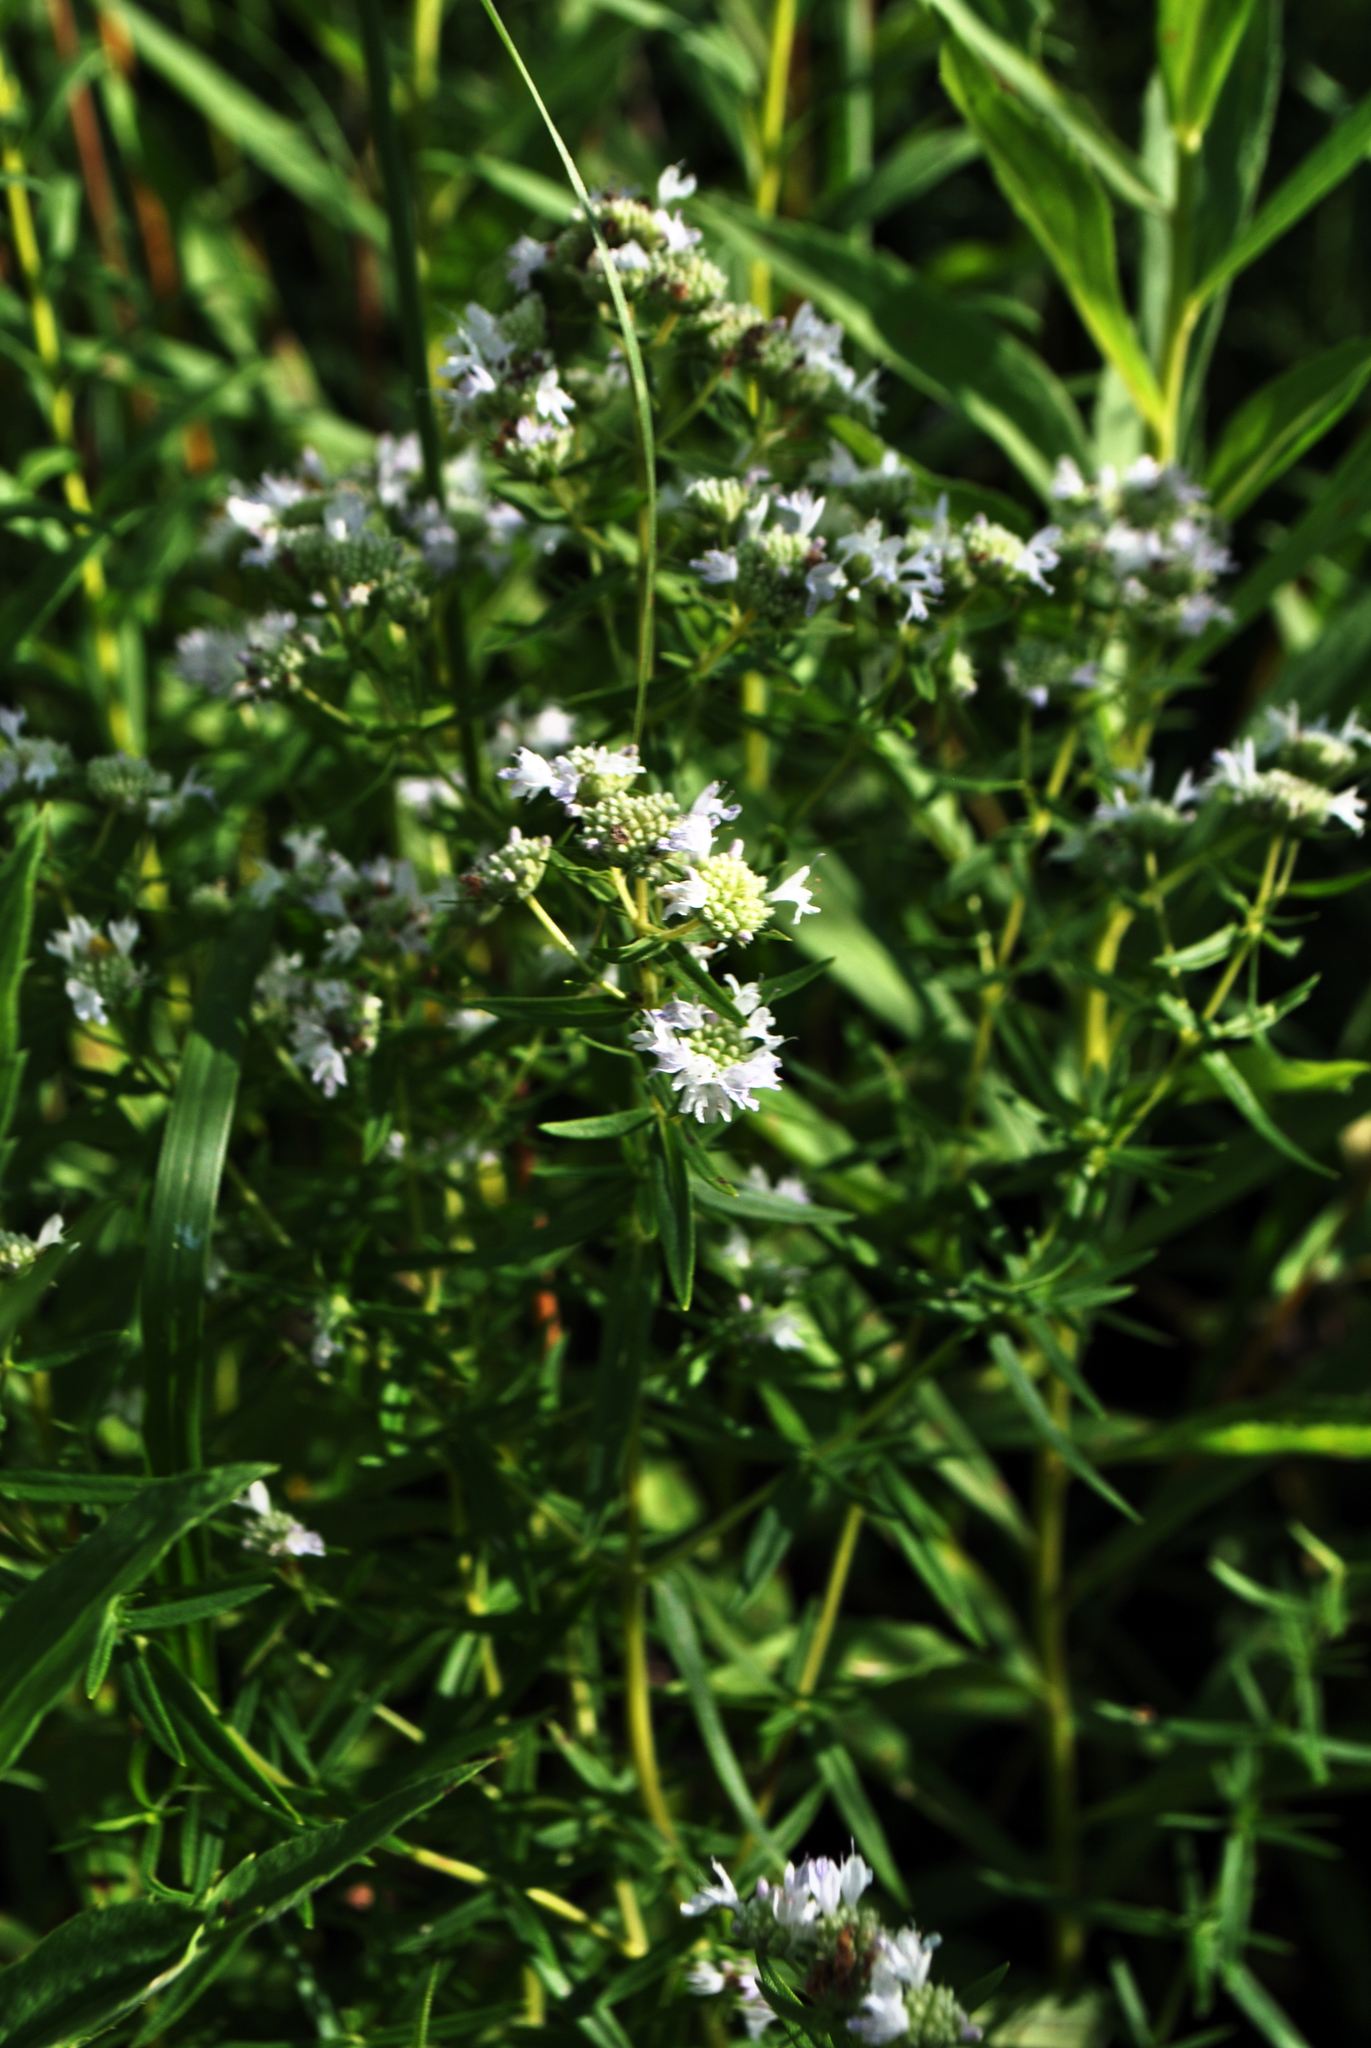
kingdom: Plantae
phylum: Tracheophyta
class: Magnoliopsida
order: Lamiales
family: Lamiaceae
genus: Pycnanthemum
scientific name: Pycnanthemum virginianum
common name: Virginia mountain-mint
